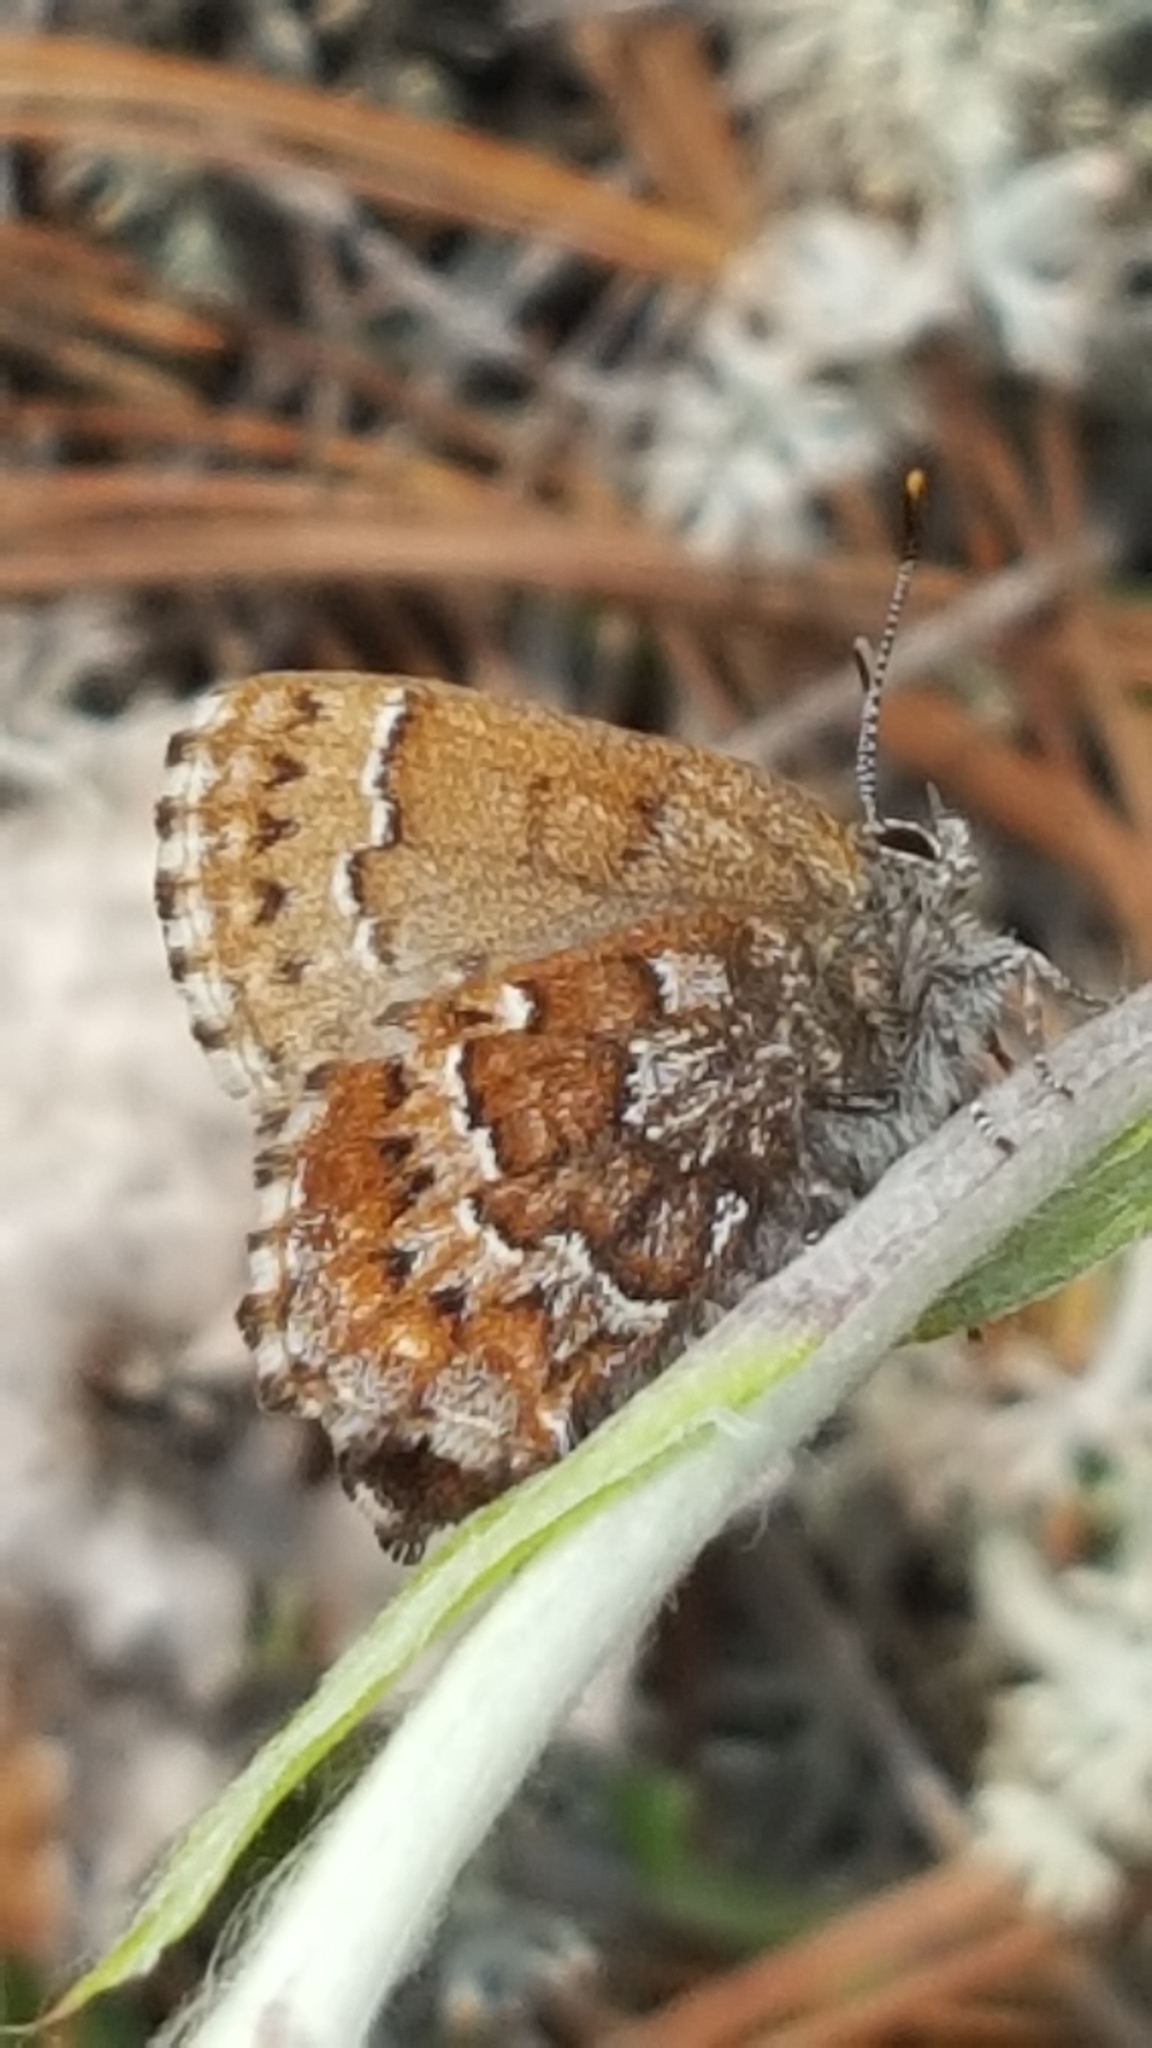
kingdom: Animalia
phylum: Arthropoda
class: Insecta
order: Lepidoptera
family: Lycaenidae
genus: Incisalia
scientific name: Incisalia niphon
